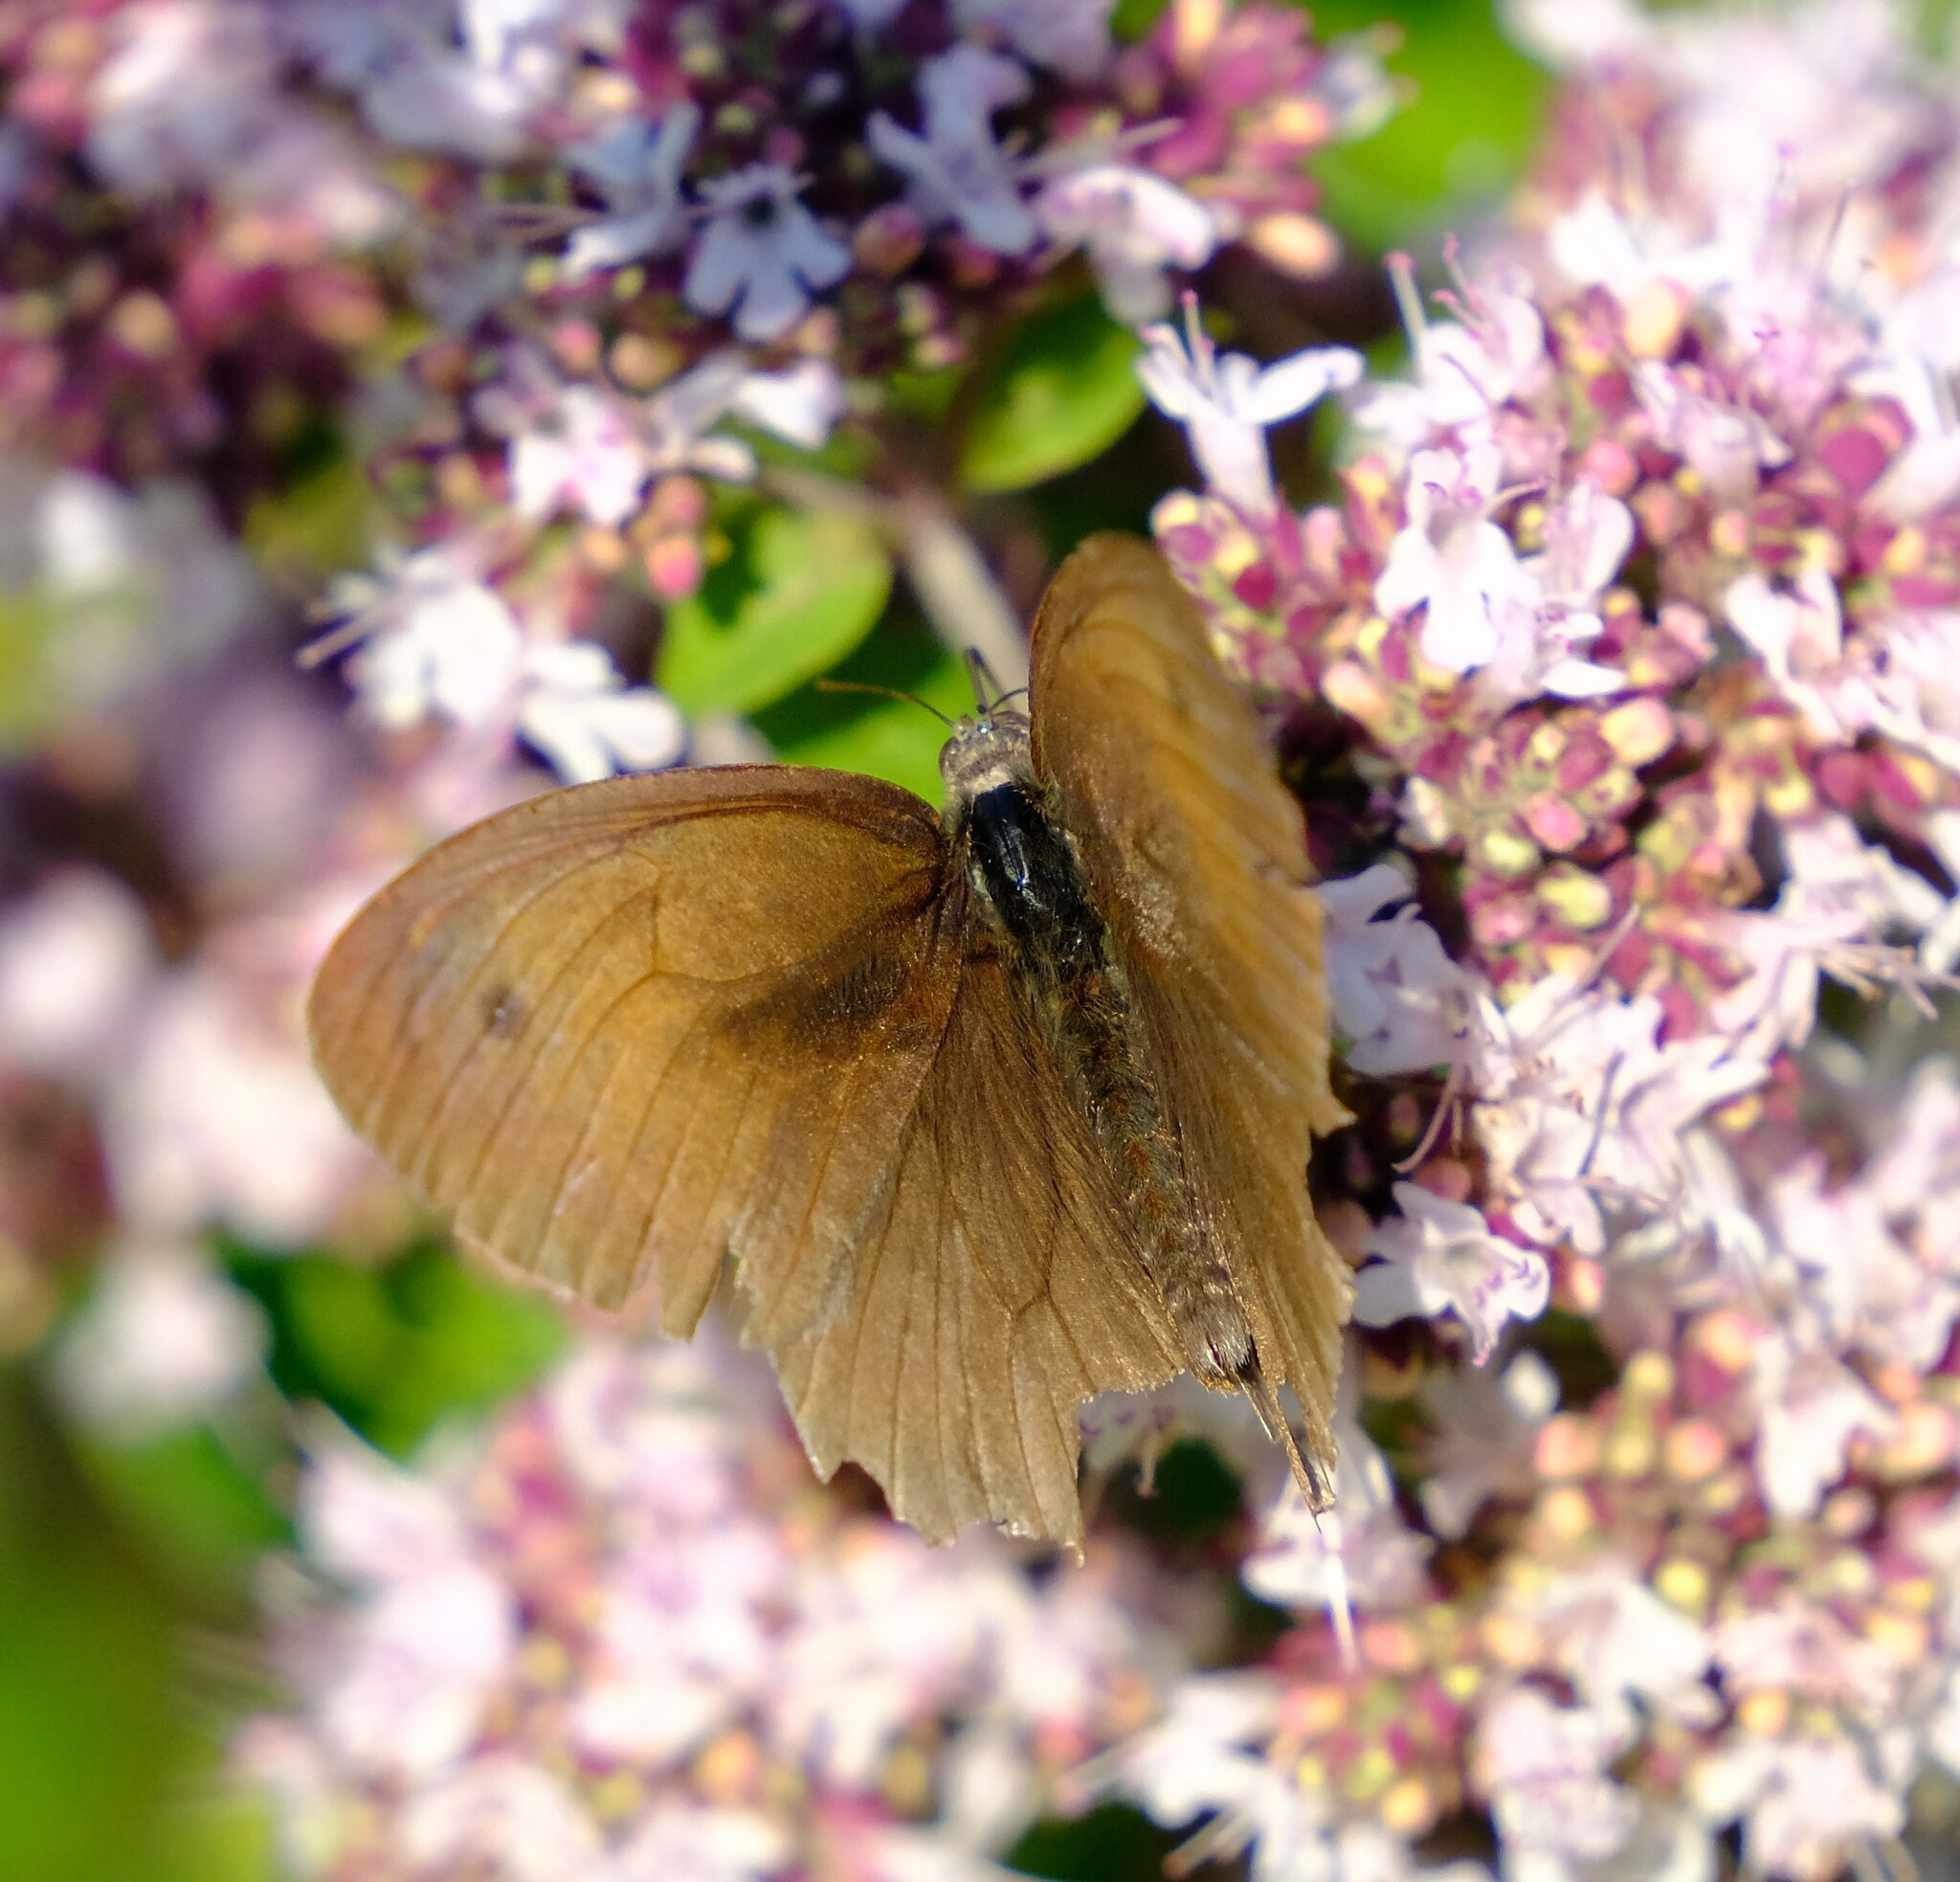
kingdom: Animalia
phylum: Arthropoda
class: Insecta
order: Lepidoptera
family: Nymphalidae
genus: Maniola
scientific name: Maniola jurtina
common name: Meadow brown
